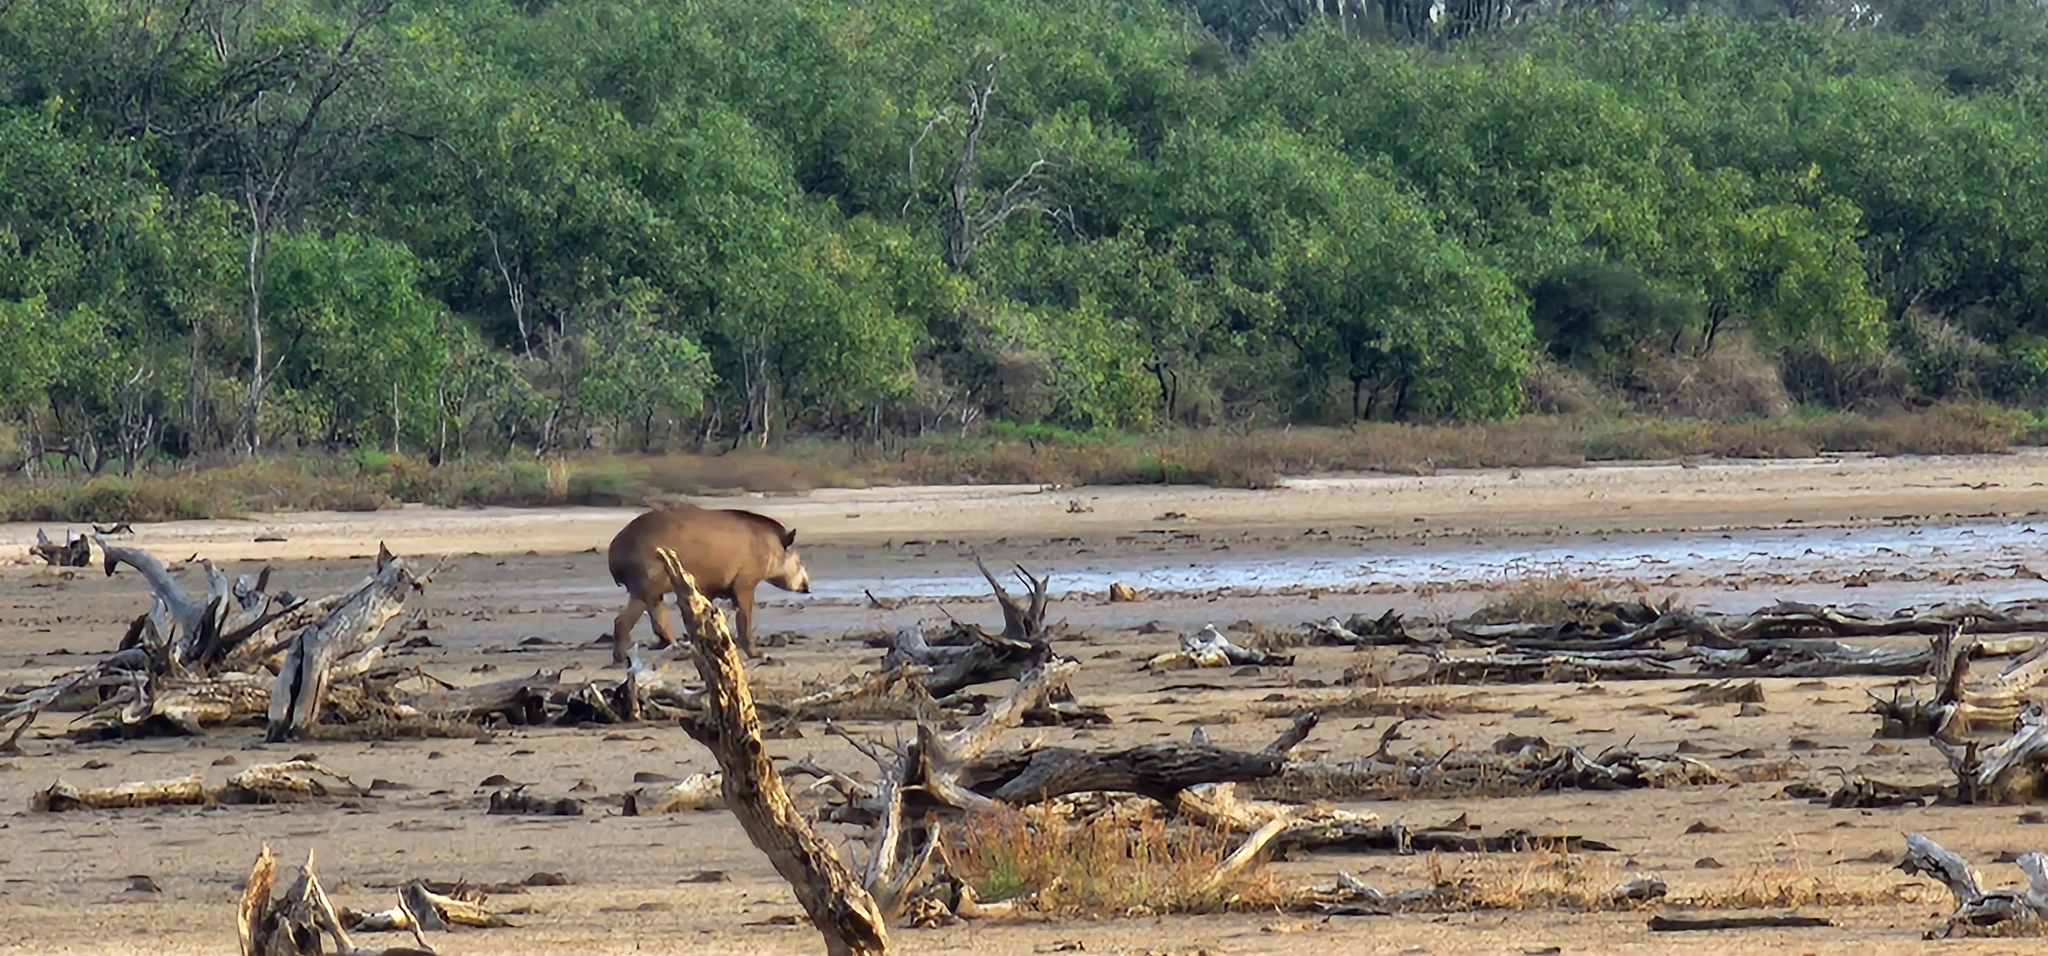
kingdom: Animalia
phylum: Chordata
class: Mammalia
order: Perissodactyla
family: Tapiridae
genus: Tapirus
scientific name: Tapirus terrestris
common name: Brazilian tapir
